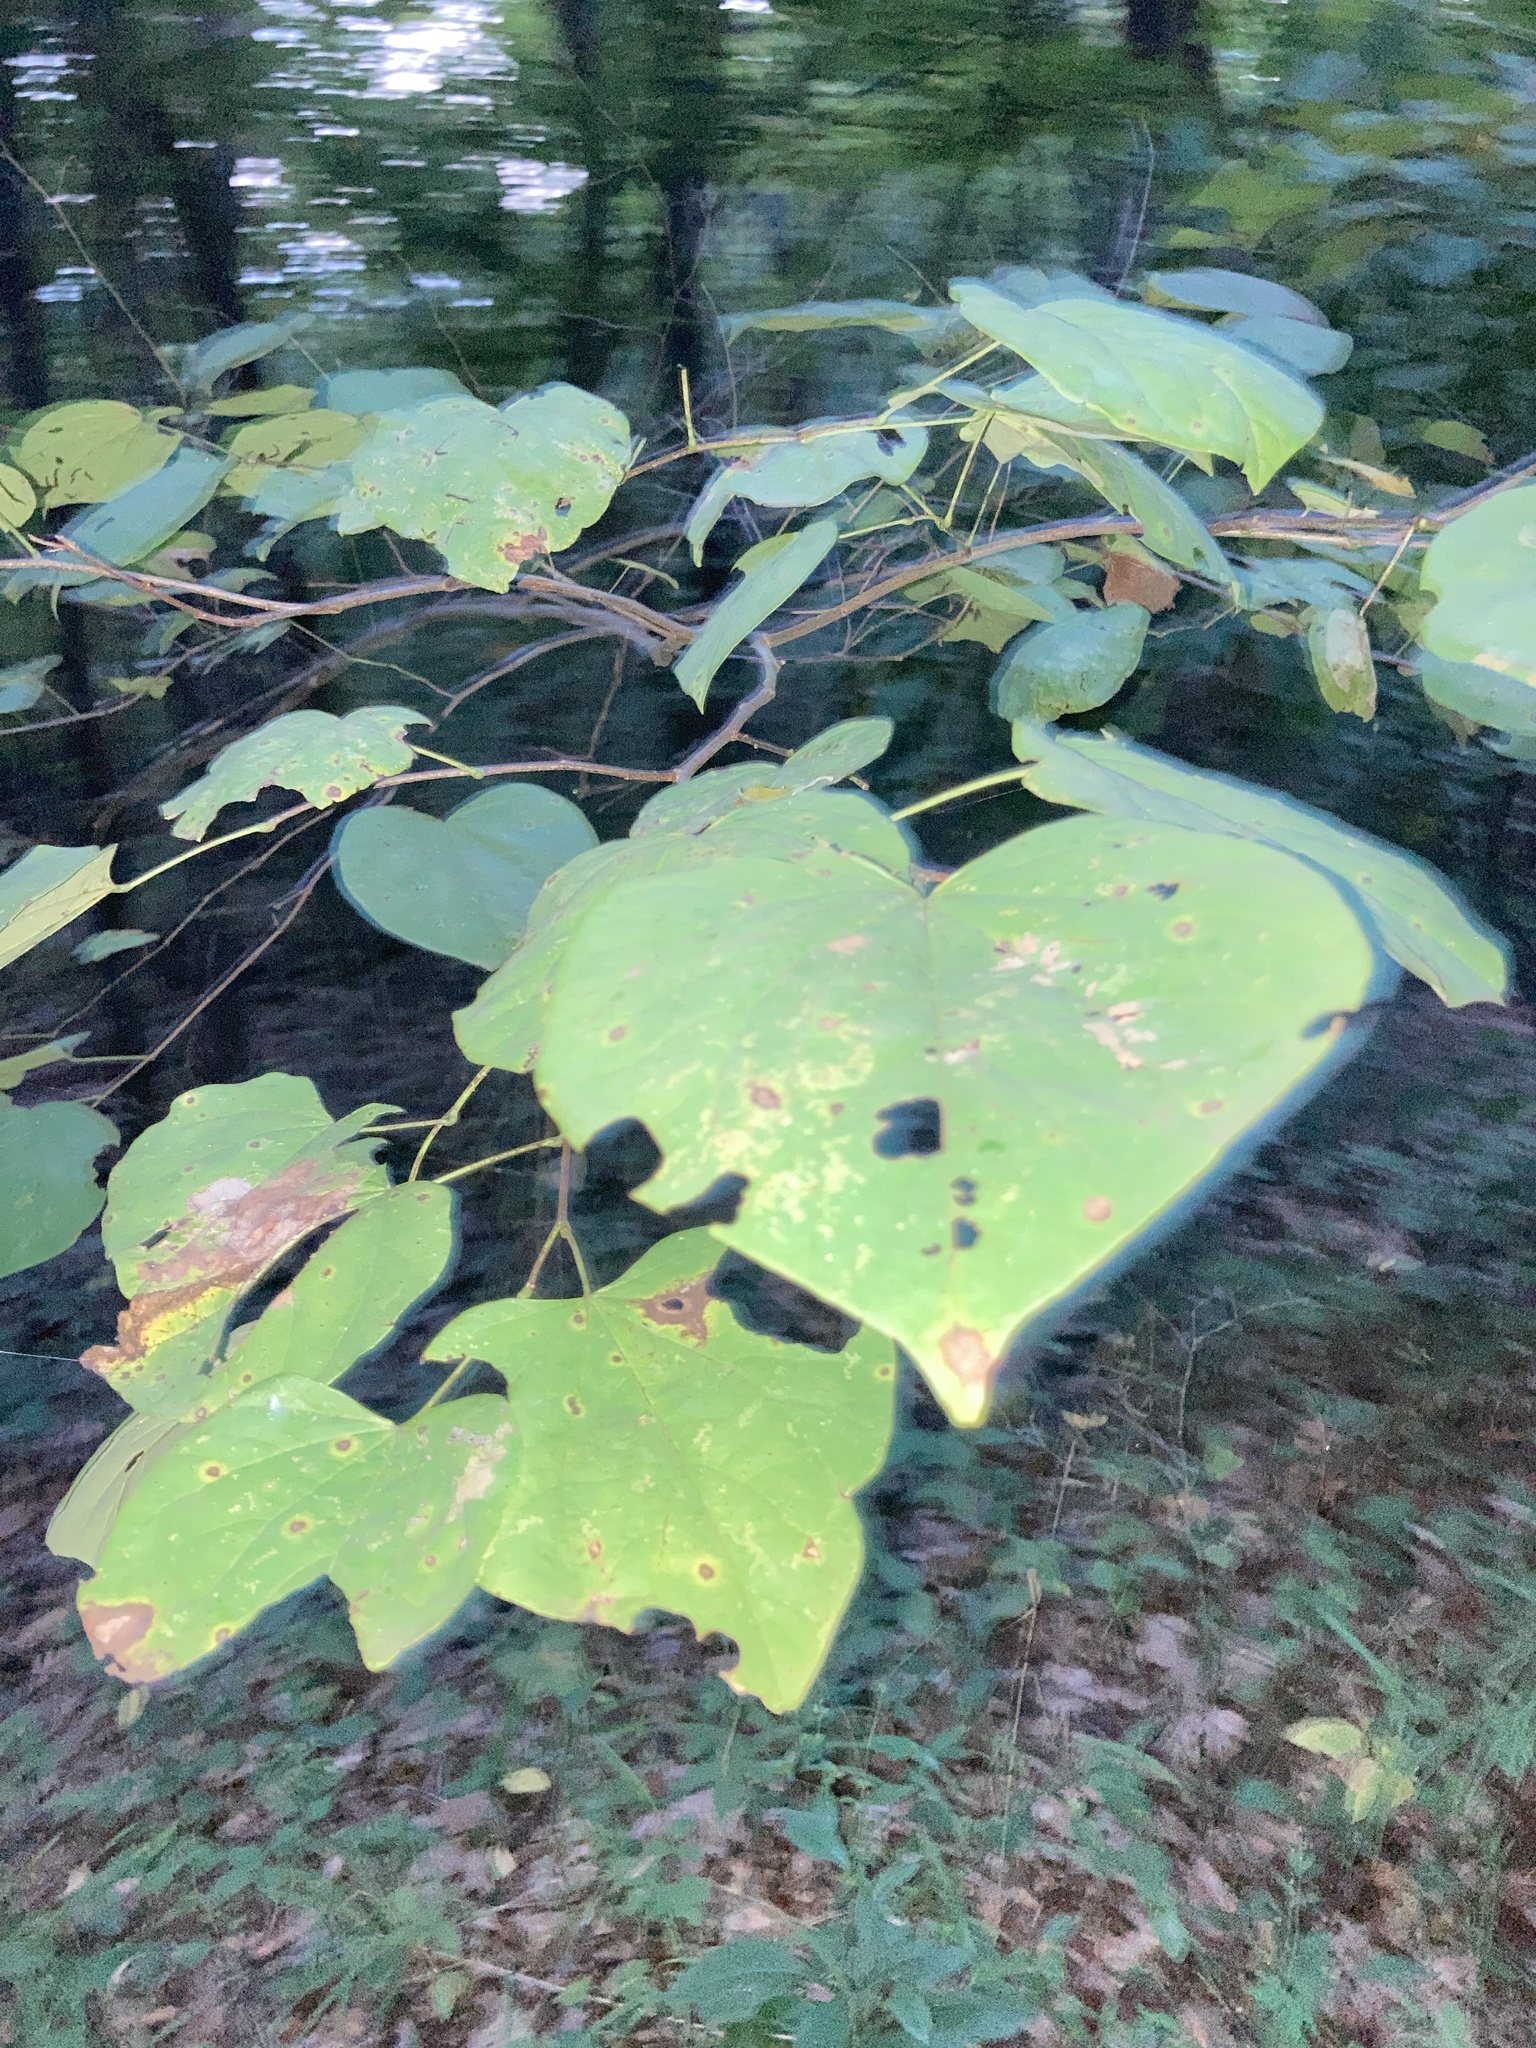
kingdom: Plantae
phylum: Tracheophyta
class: Magnoliopsida
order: Fabales
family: Fabaceae
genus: Cercis
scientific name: Cercis canadensis
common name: Eastern redbud
